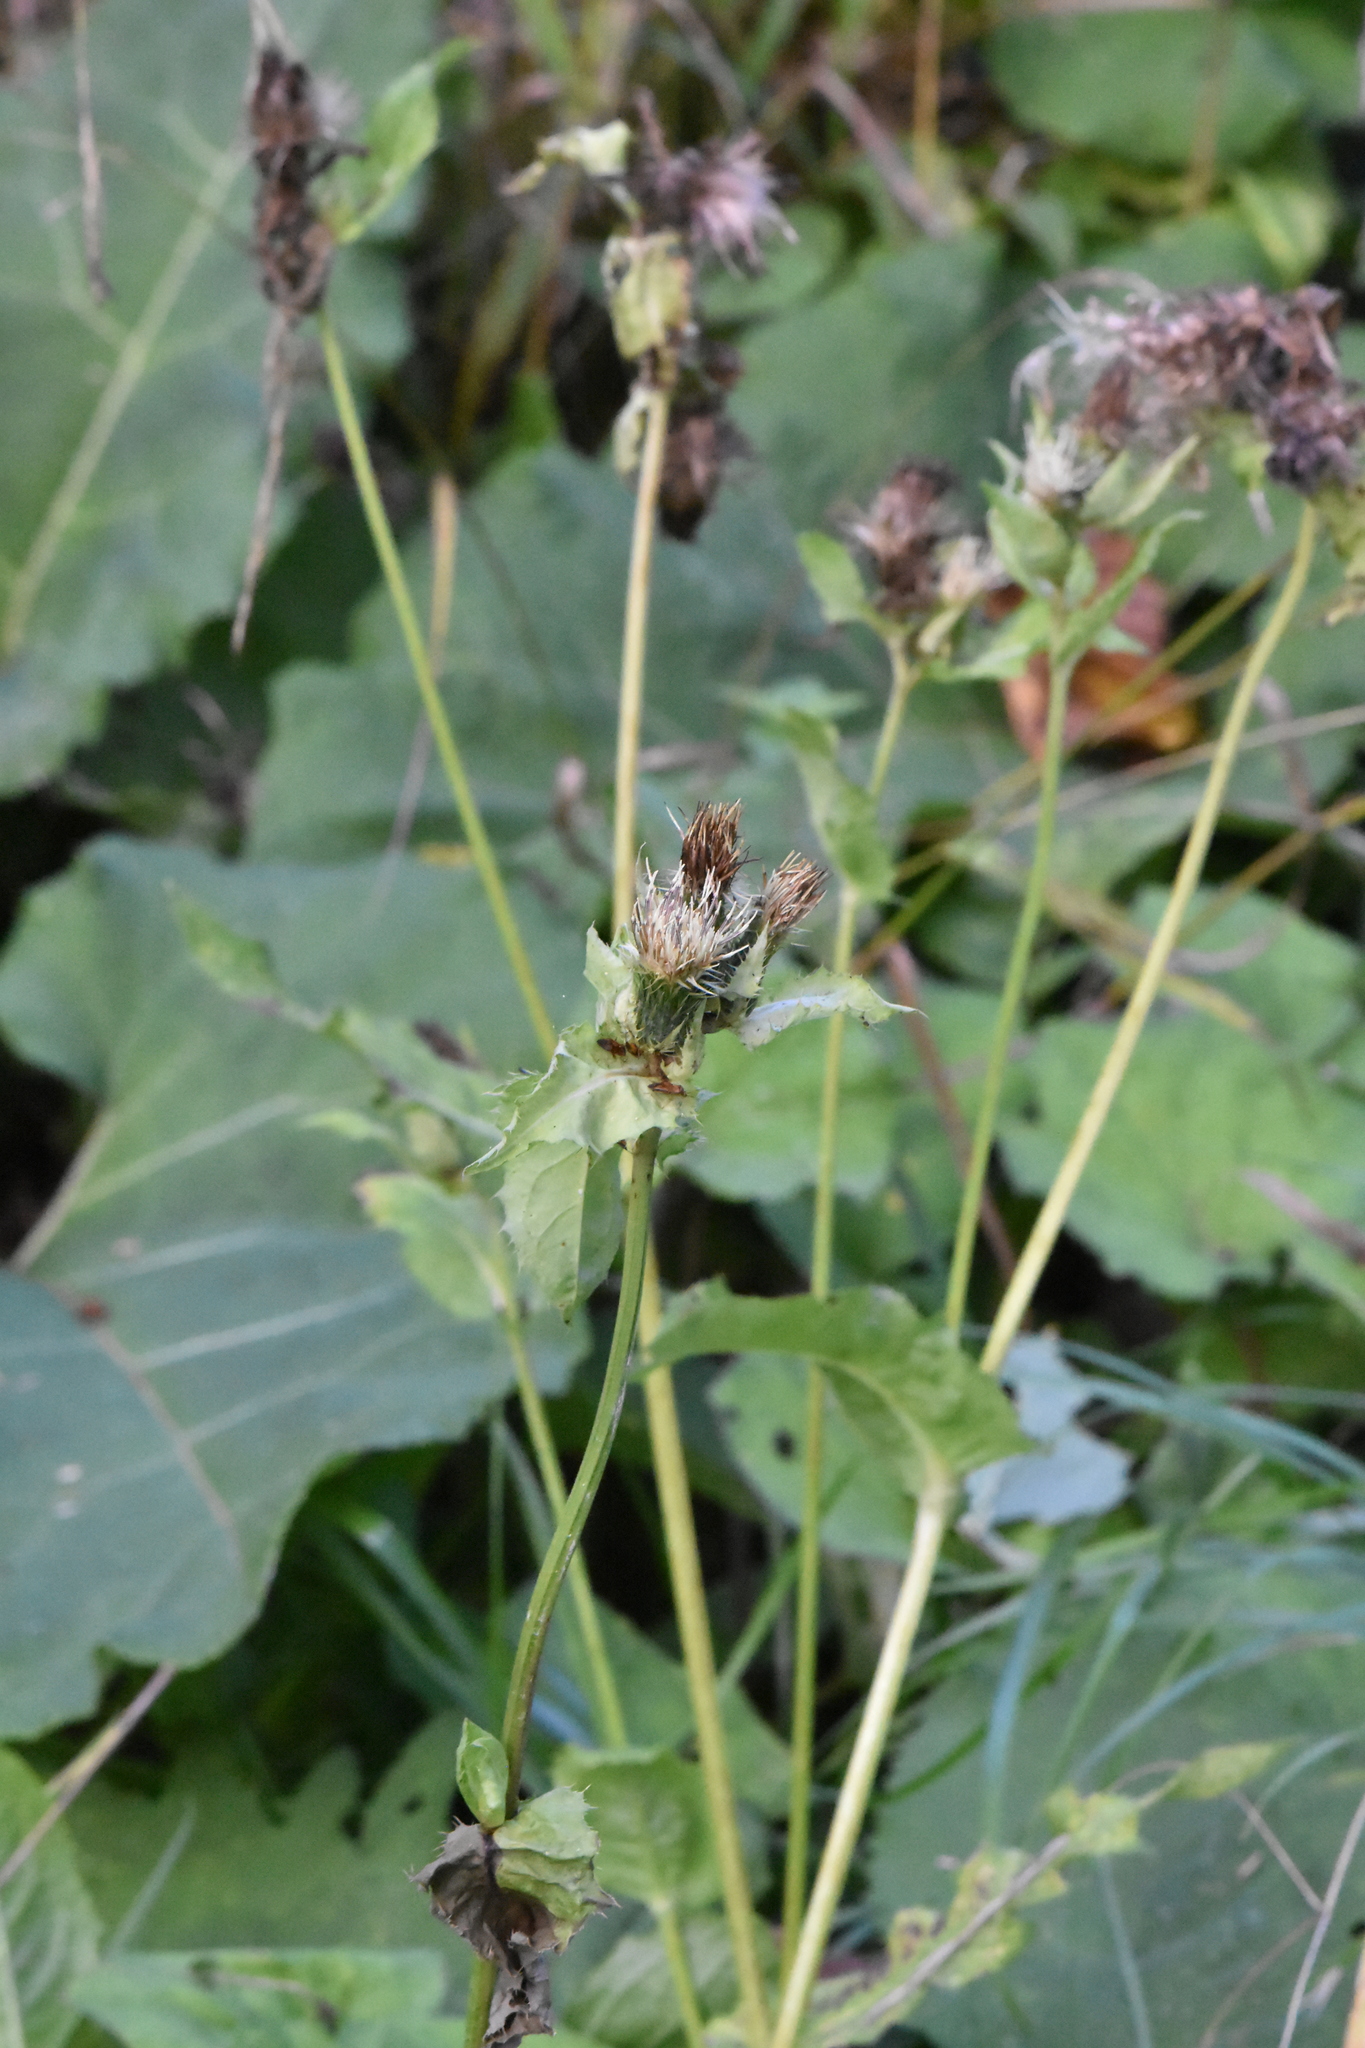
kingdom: Plantae
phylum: Tracheophyta
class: Magnoliopsida
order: Asterales
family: Asteraceae
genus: Cirsium
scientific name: Cirsium oleraceum
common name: Cabbage thistle
